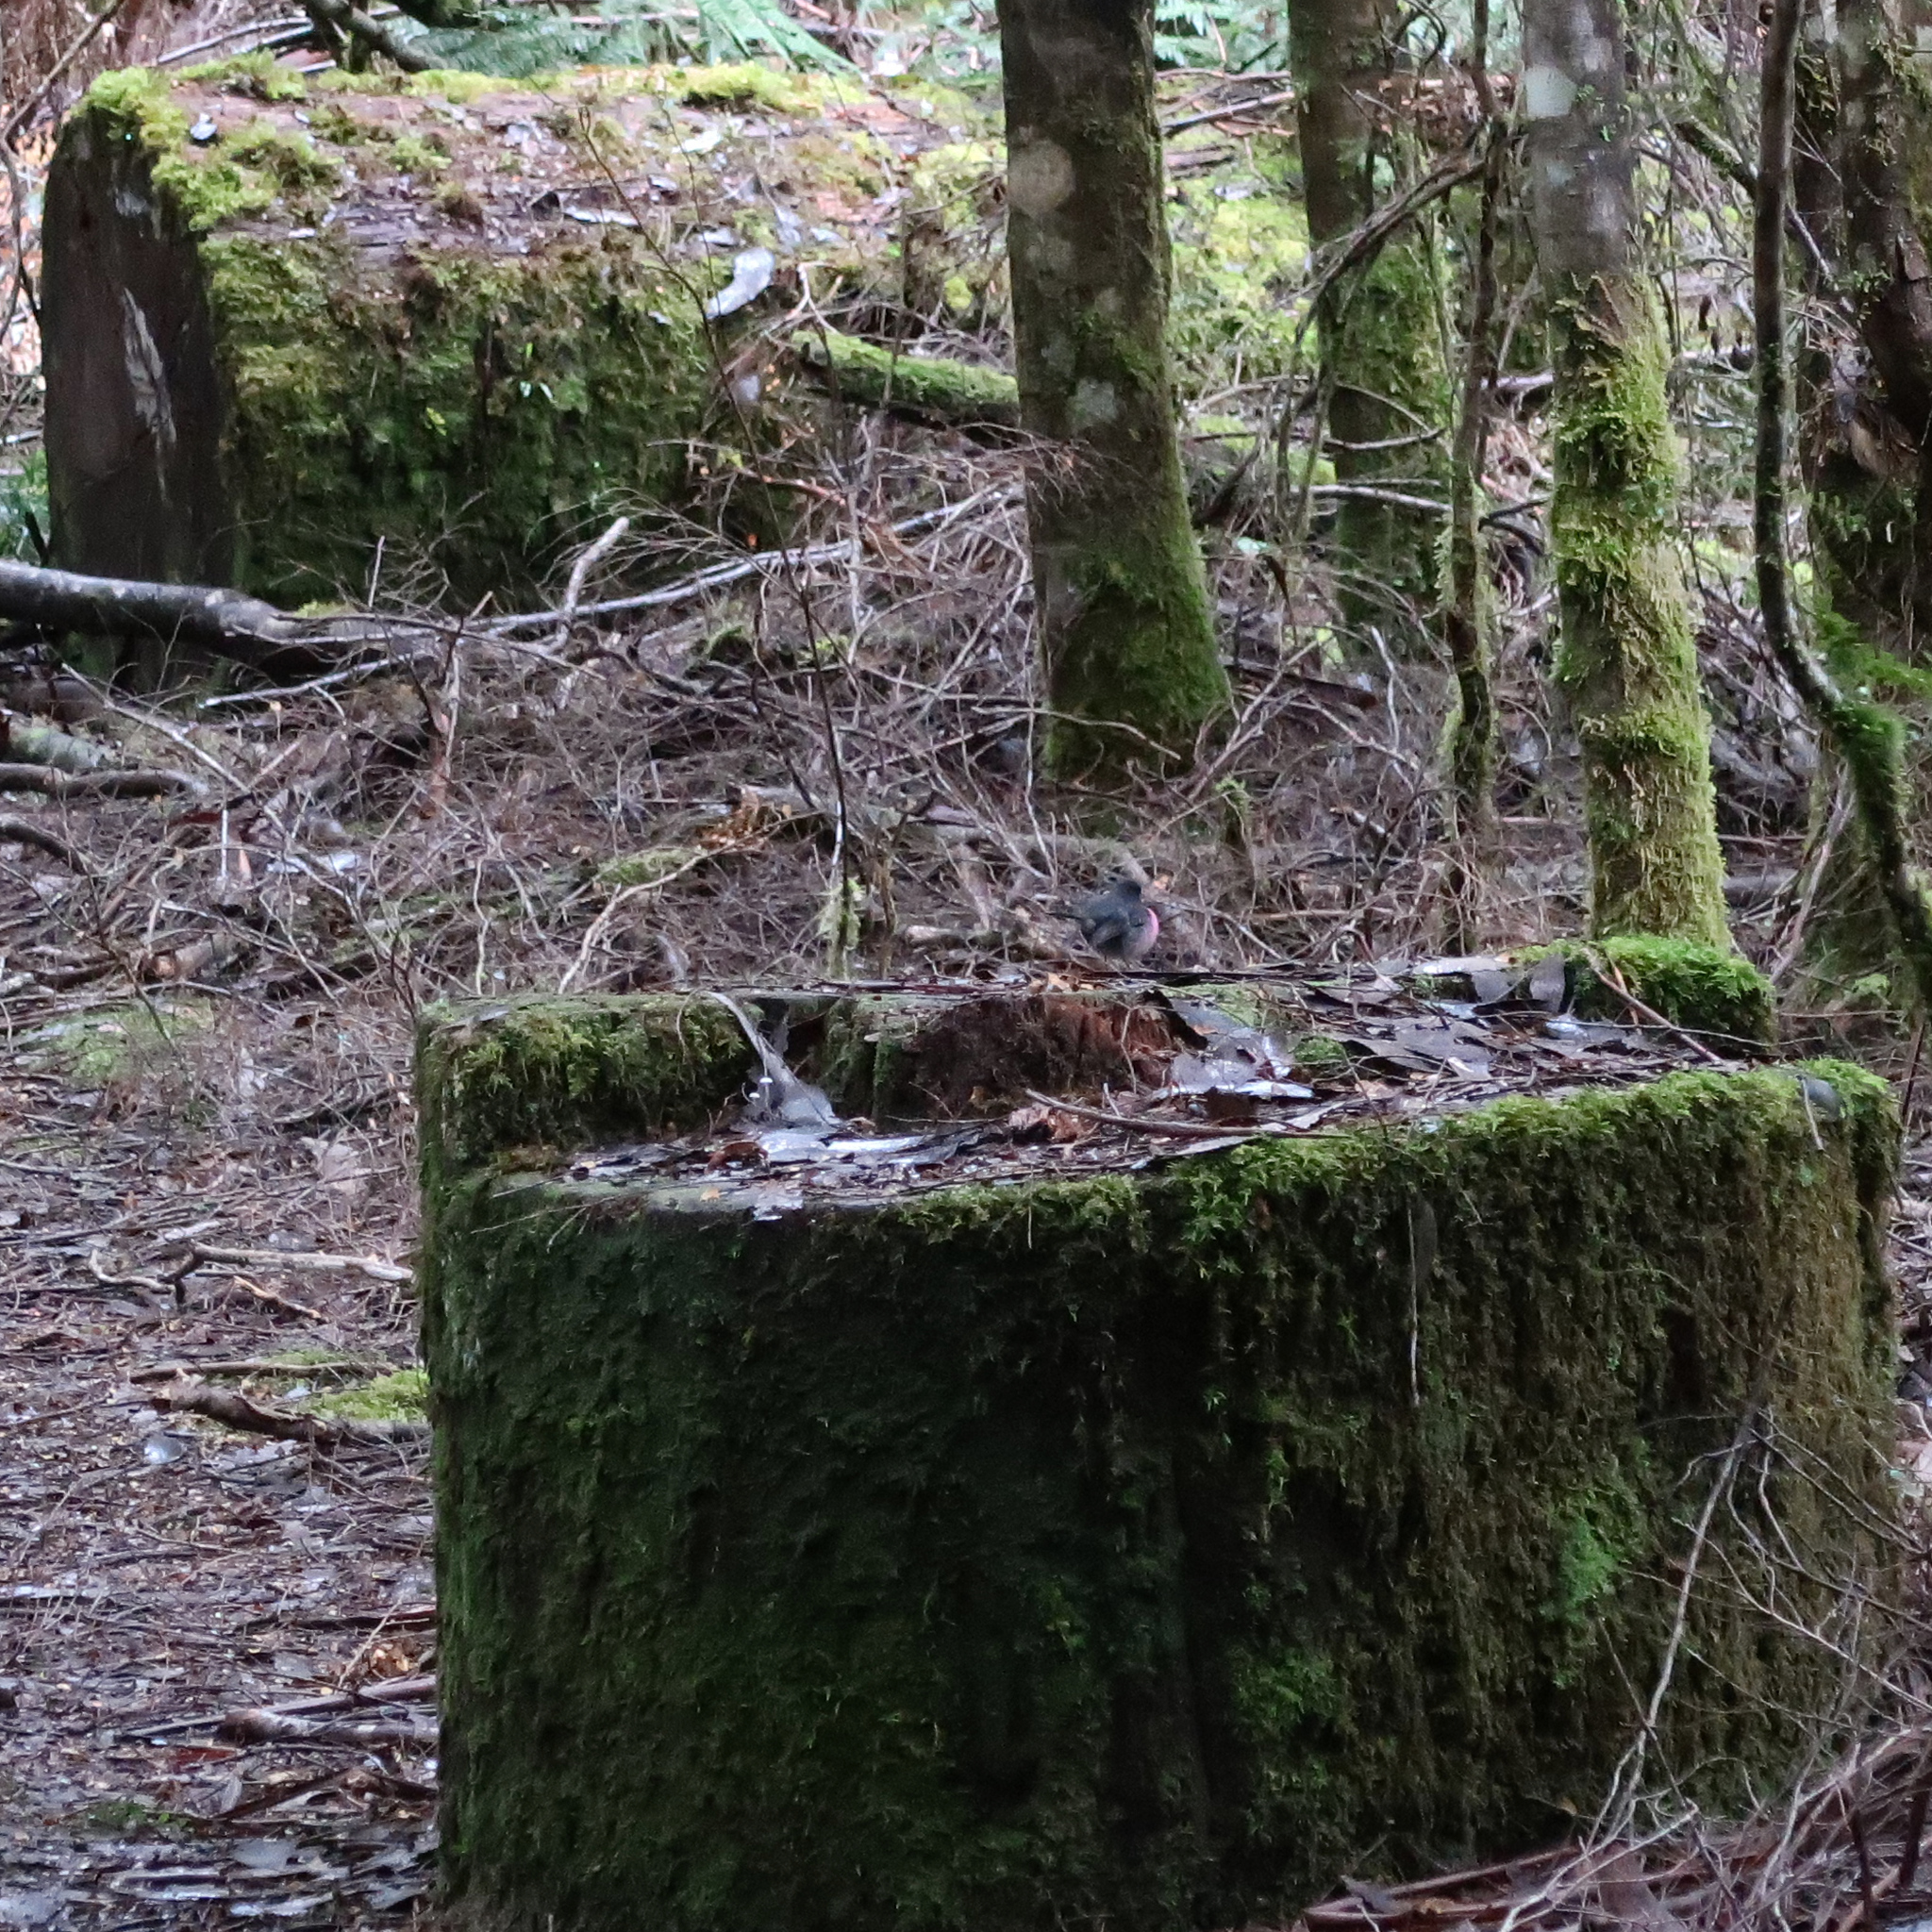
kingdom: Animalia
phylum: Chordata
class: Aves
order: Passeriformes
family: Petroicidae
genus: Petroica
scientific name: Petroica rodinogaster
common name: Pink robin
